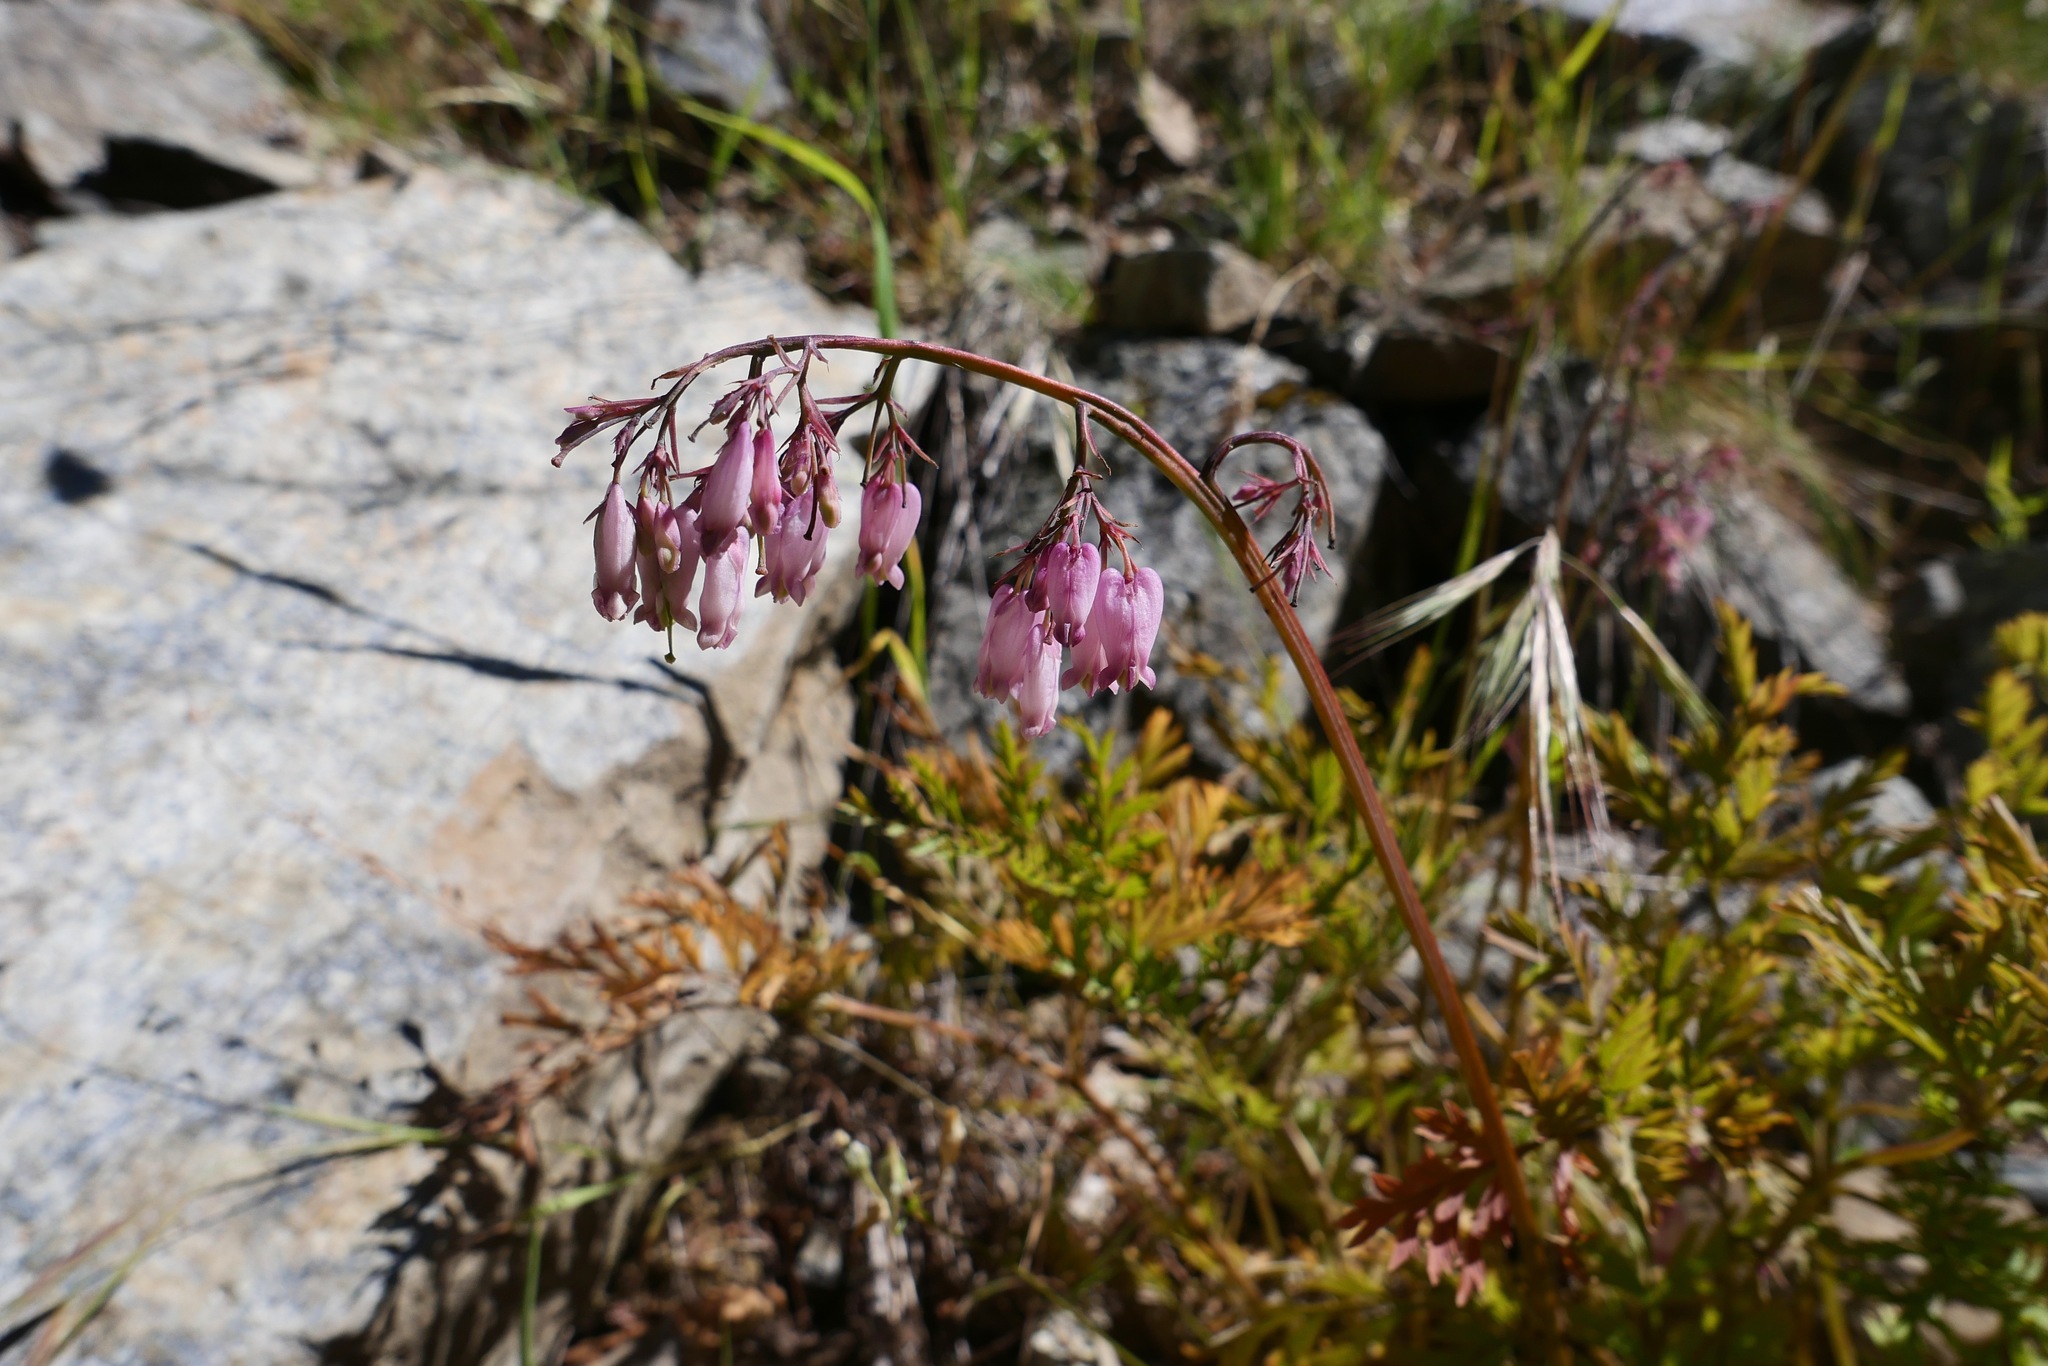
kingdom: Plantae
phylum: Tracheophyta
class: Magnoliopsida
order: Ranunculales
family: Papaveraceae
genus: Dicentra
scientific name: Dicentra formosa
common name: Bleeding-heart
